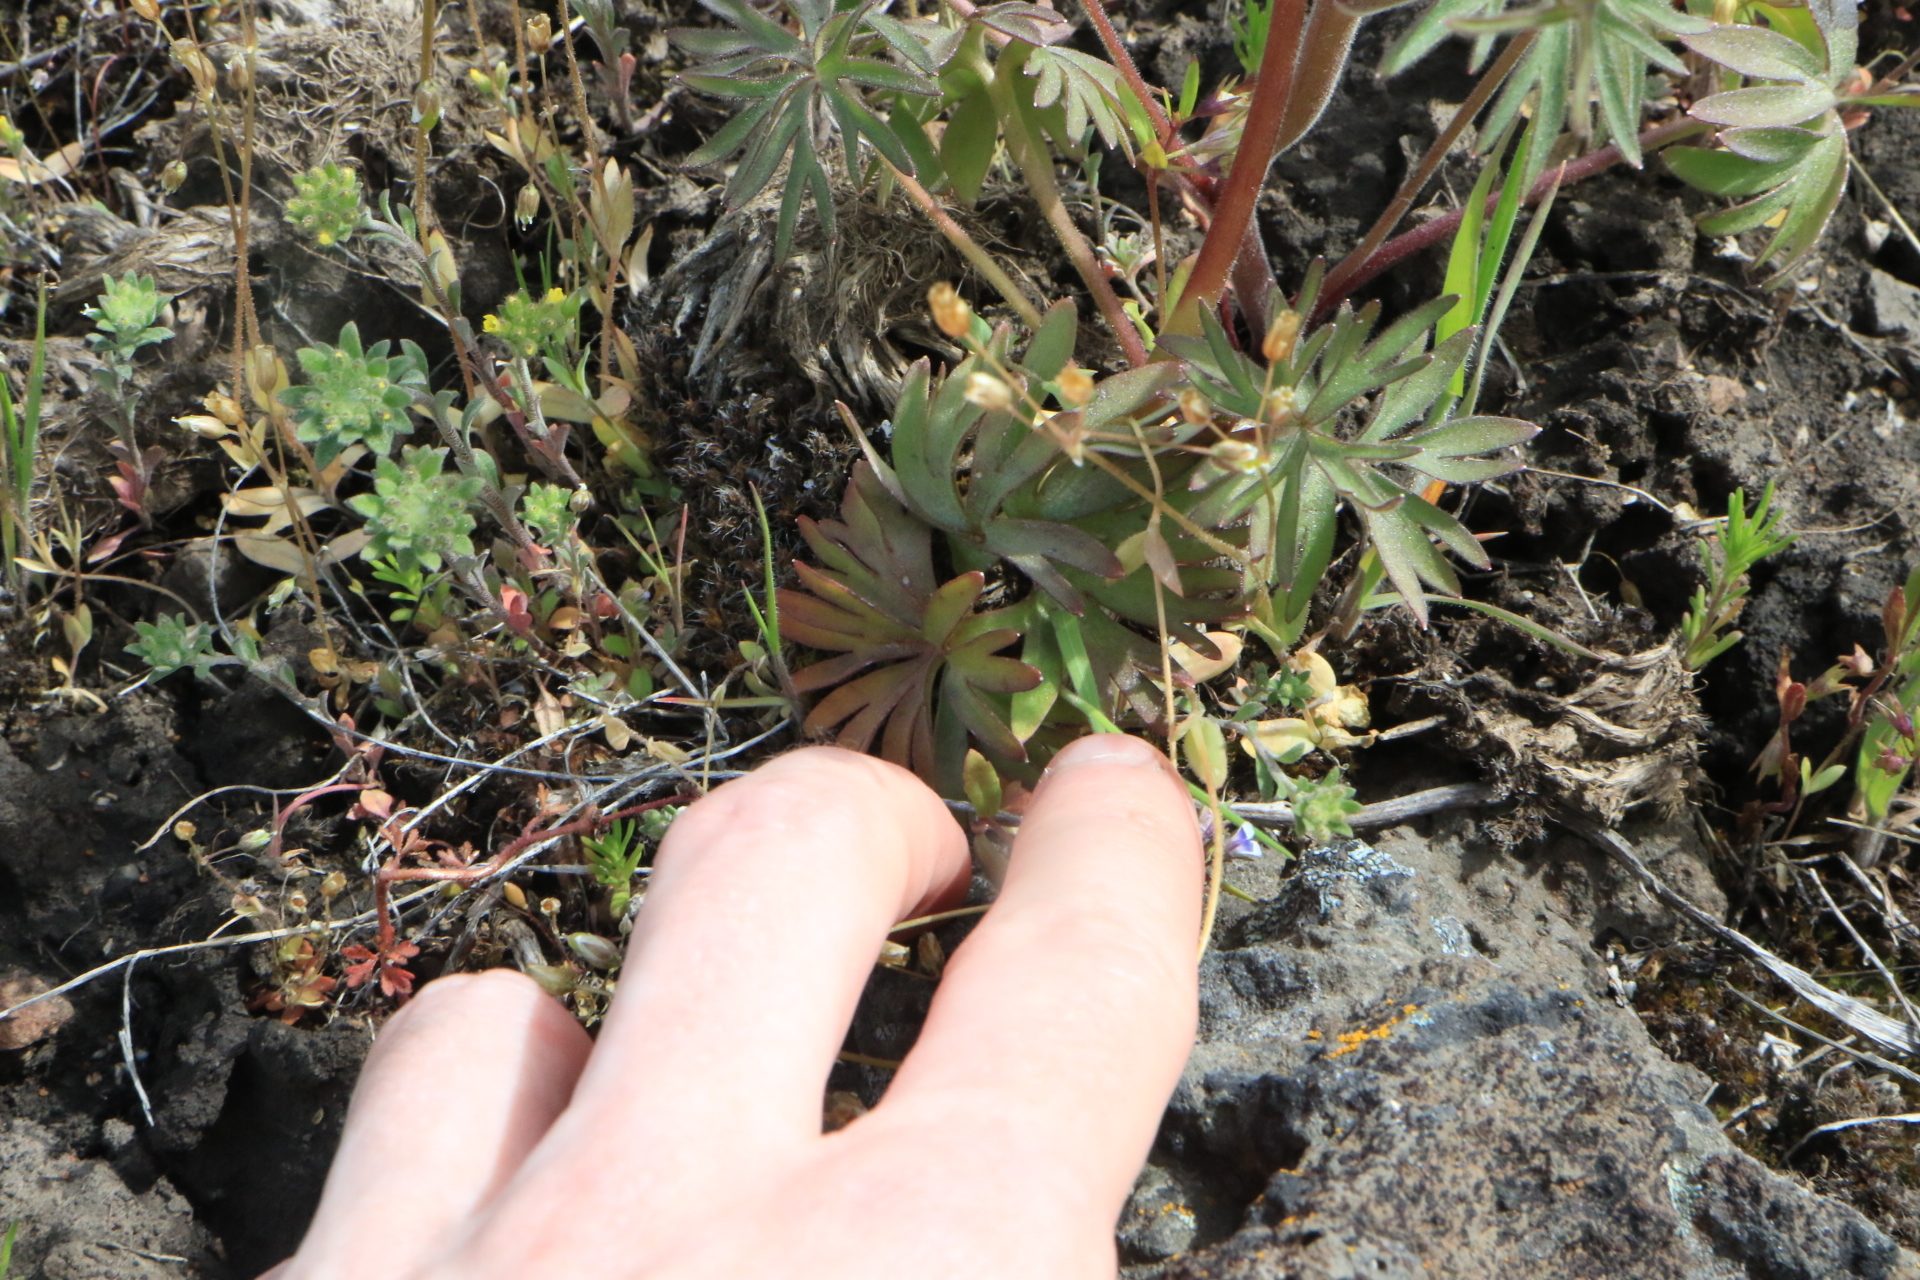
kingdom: Plantae
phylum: Tracheophyta
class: Magnoliopsida
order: Ranunculales
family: Ranunculaceae
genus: Delphinium
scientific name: Delphinium nuttallianum
